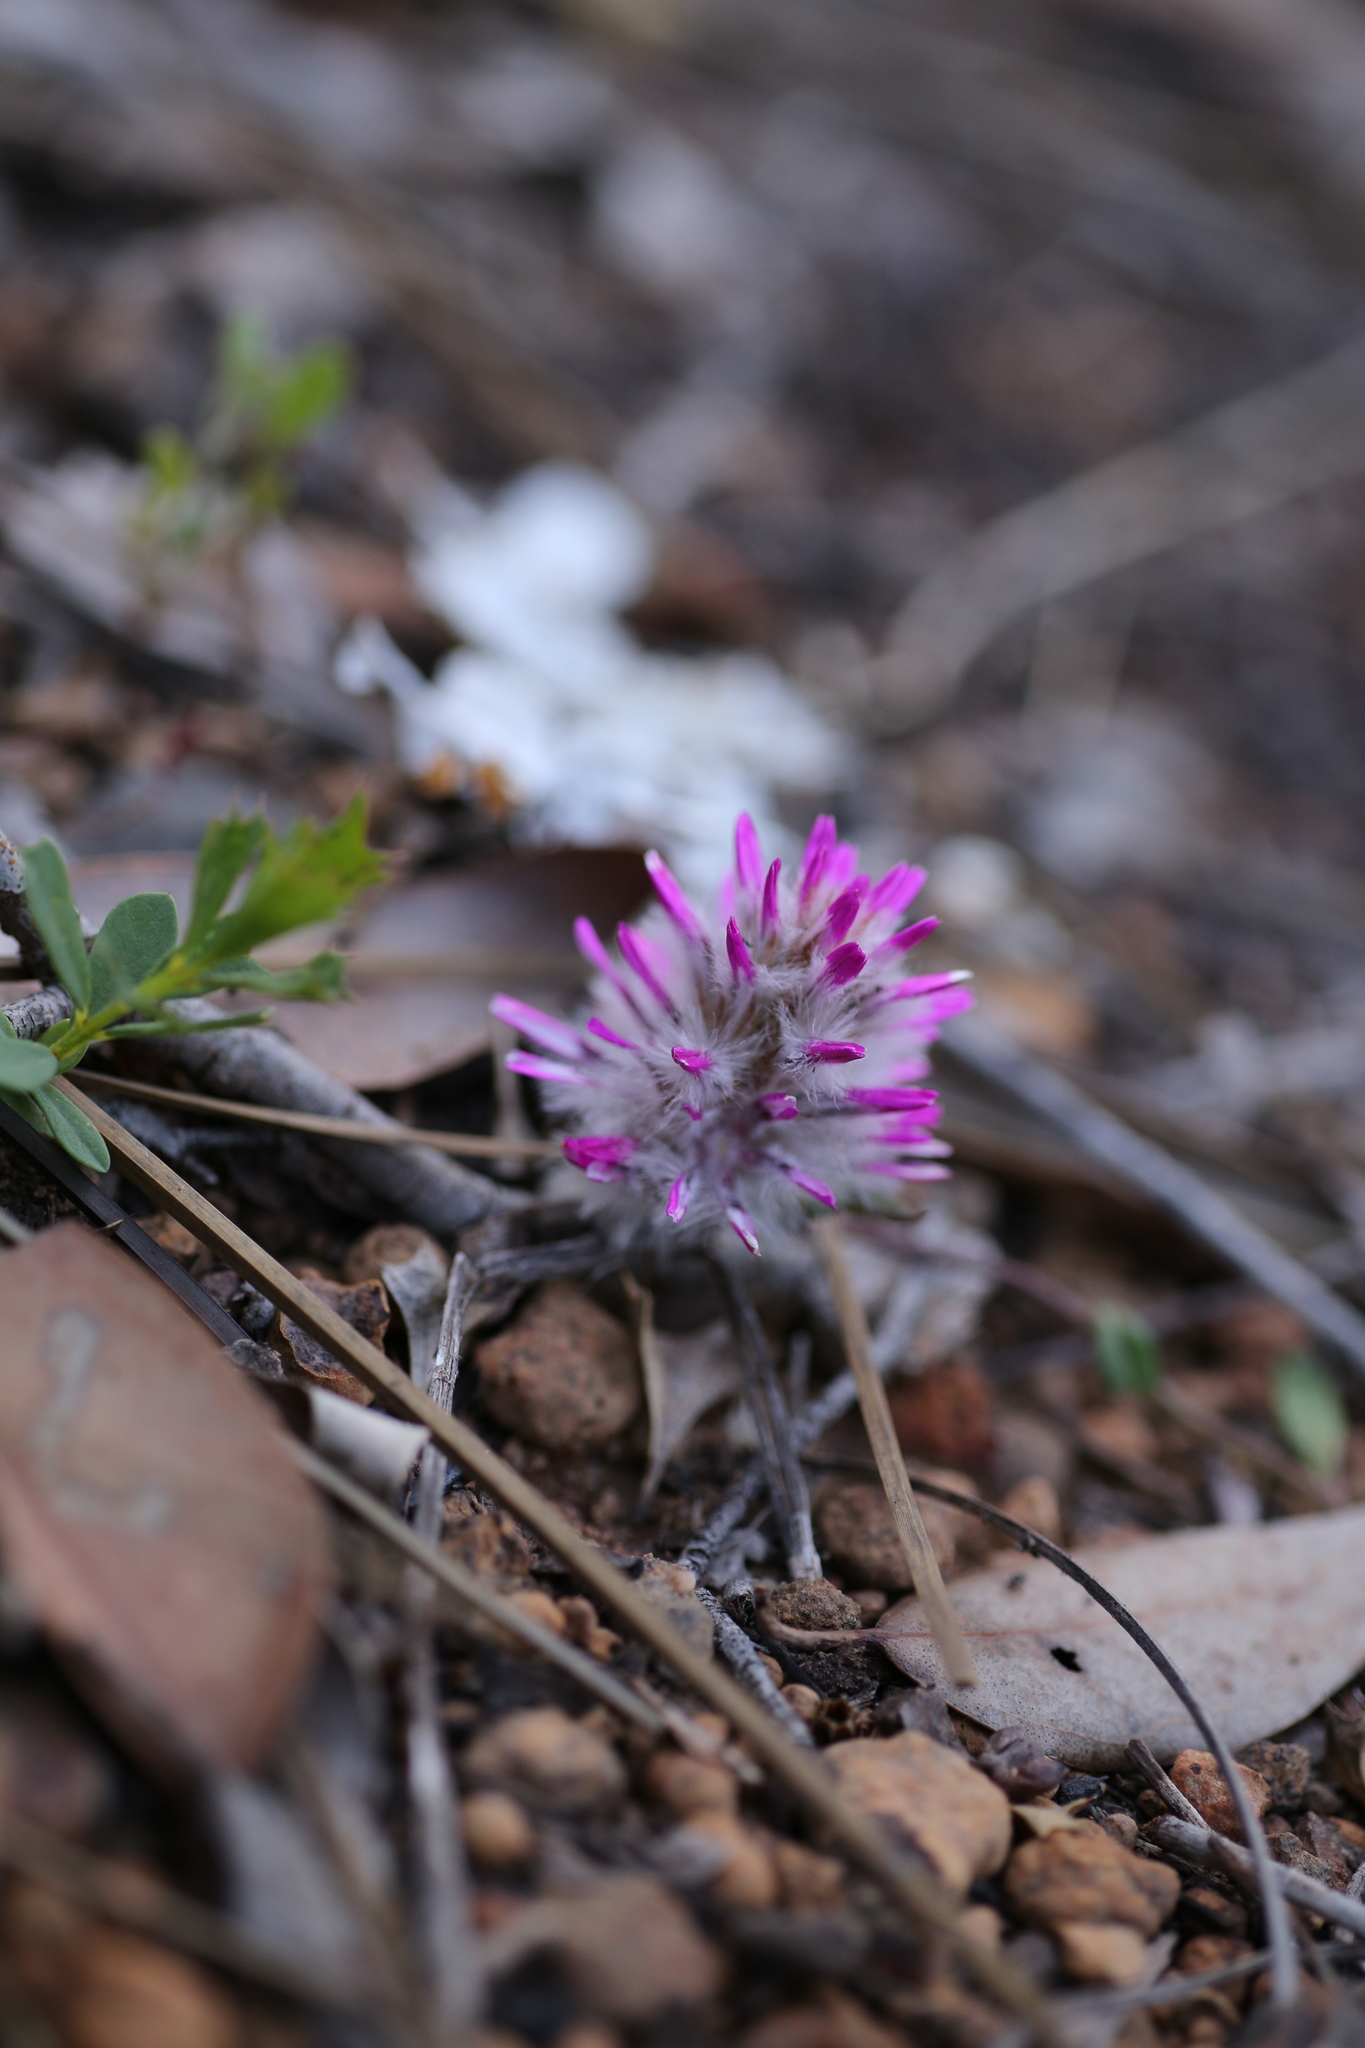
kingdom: Plantae
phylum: Tracheophyta
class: Magnoliopsida
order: Caryophyllales
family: Amaranthaceae
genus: Ptilotus
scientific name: Ptilotus manglesii
